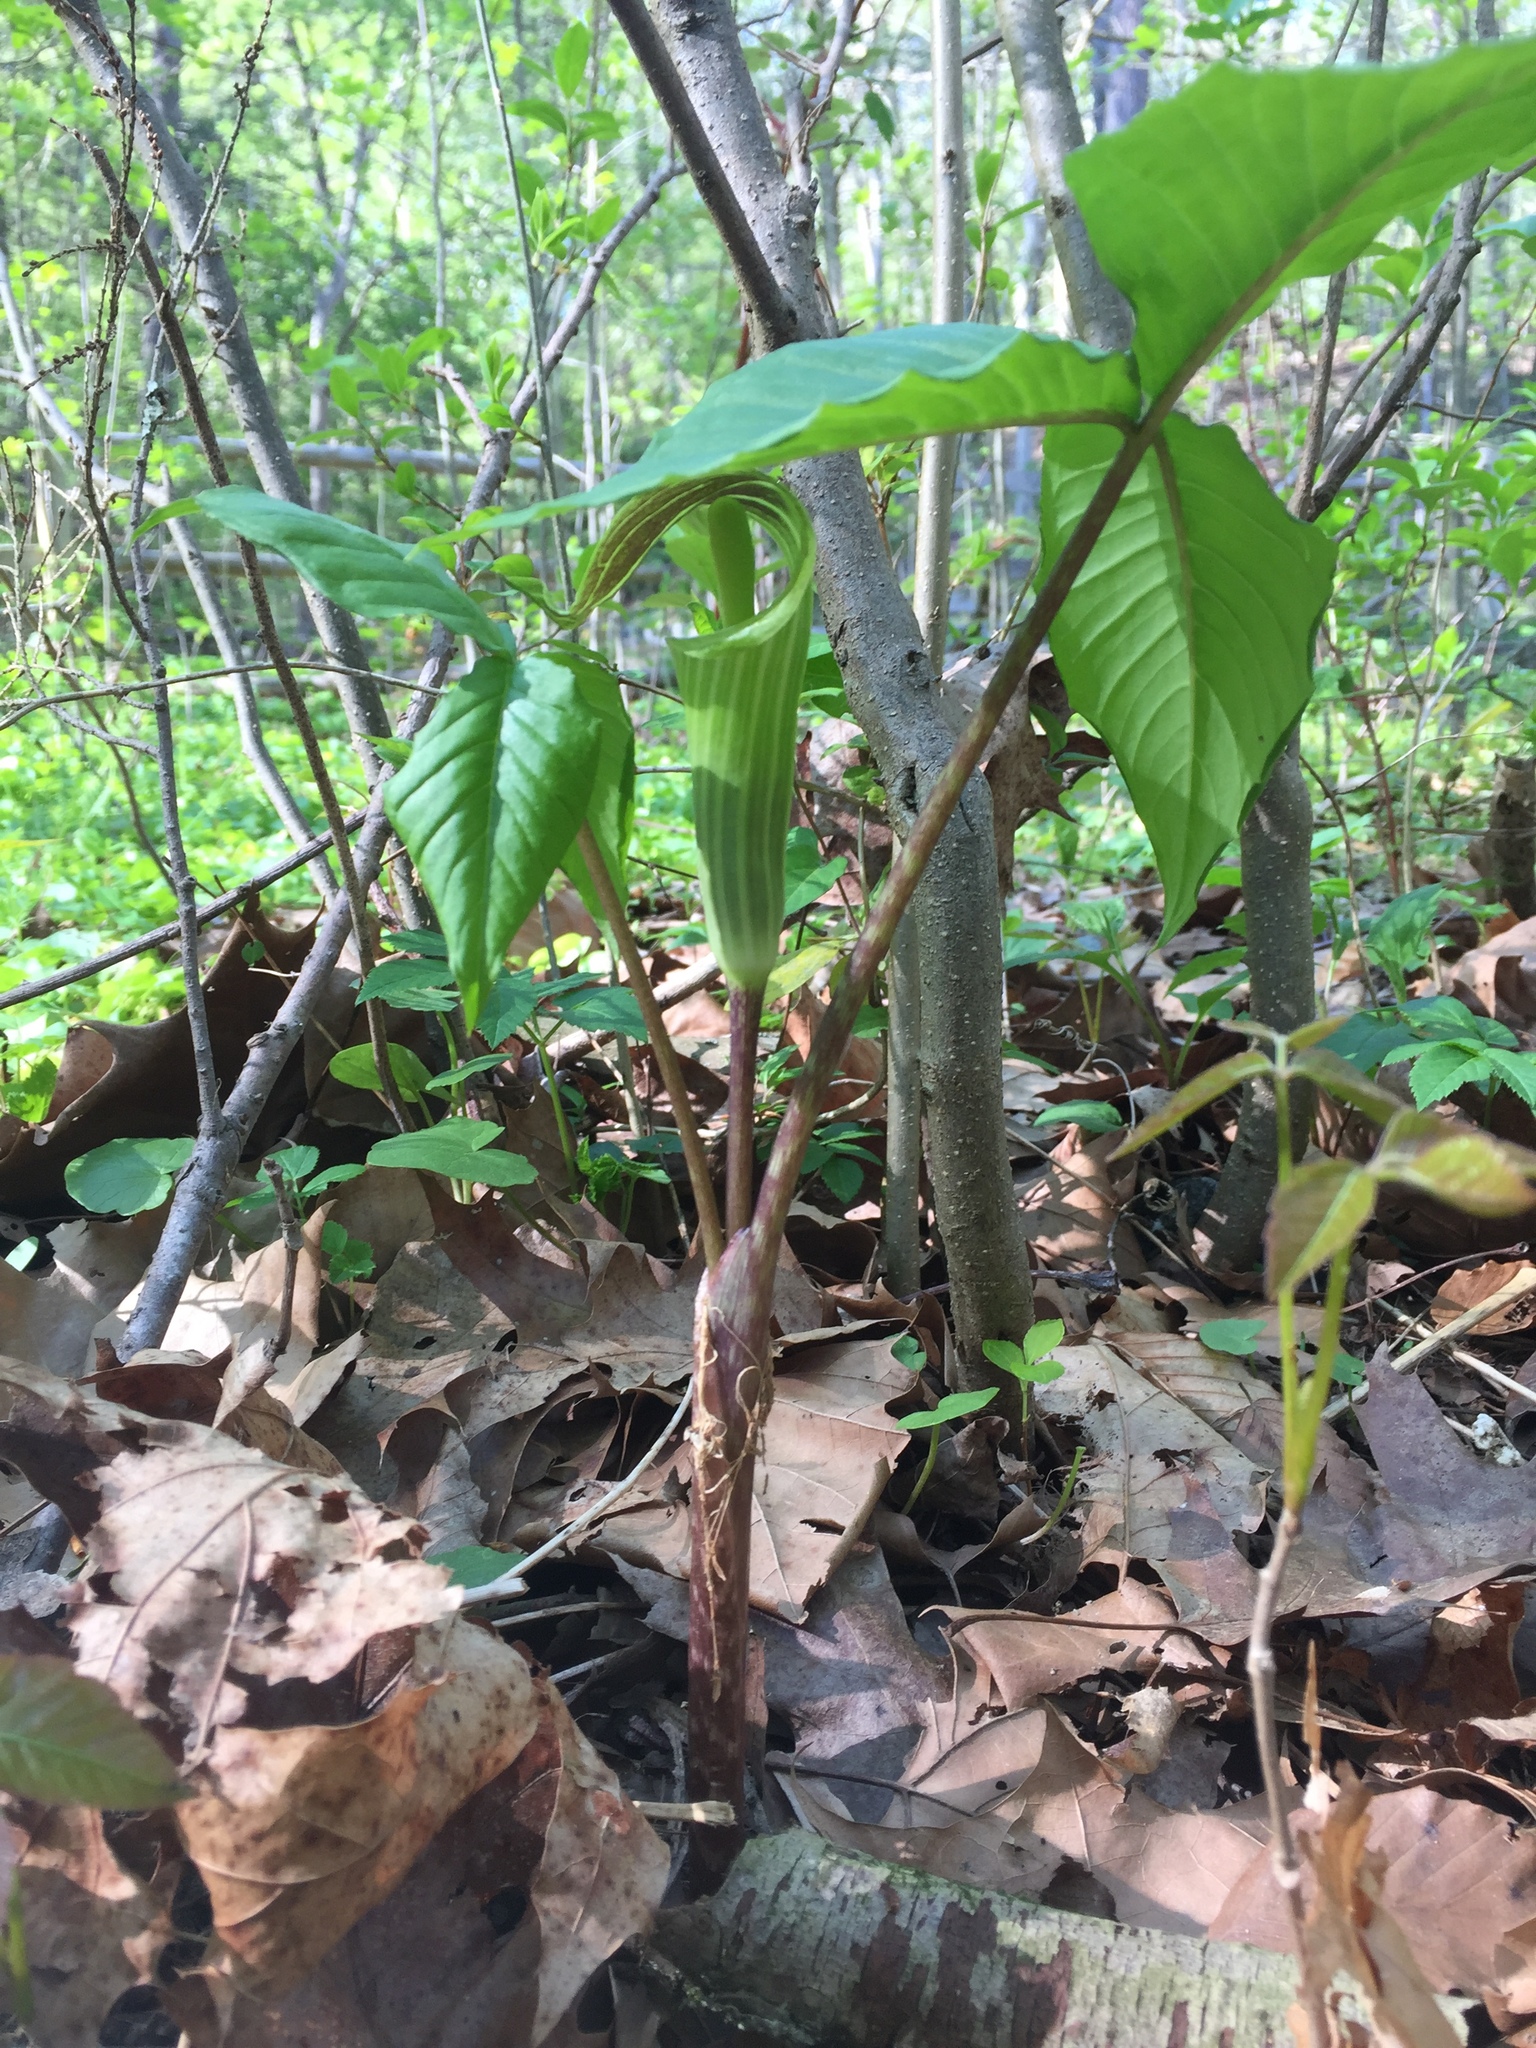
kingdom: Plantae
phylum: Tracheophyta
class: Liliopsida
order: Alismatales
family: Araceae
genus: Arisaema
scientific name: Arisaema triphyllum
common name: Jack-in-the-pulpit
